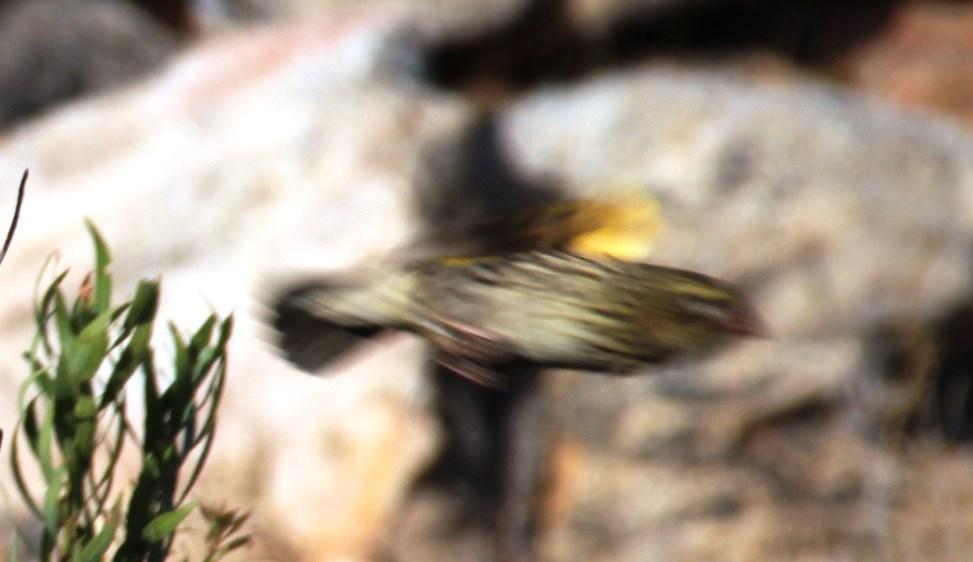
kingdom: Animalia
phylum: Chordata
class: Aves
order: Passeriformes
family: Ploceidae
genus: Euplectes
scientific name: Euplectes capensis
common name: Yellow bishop
